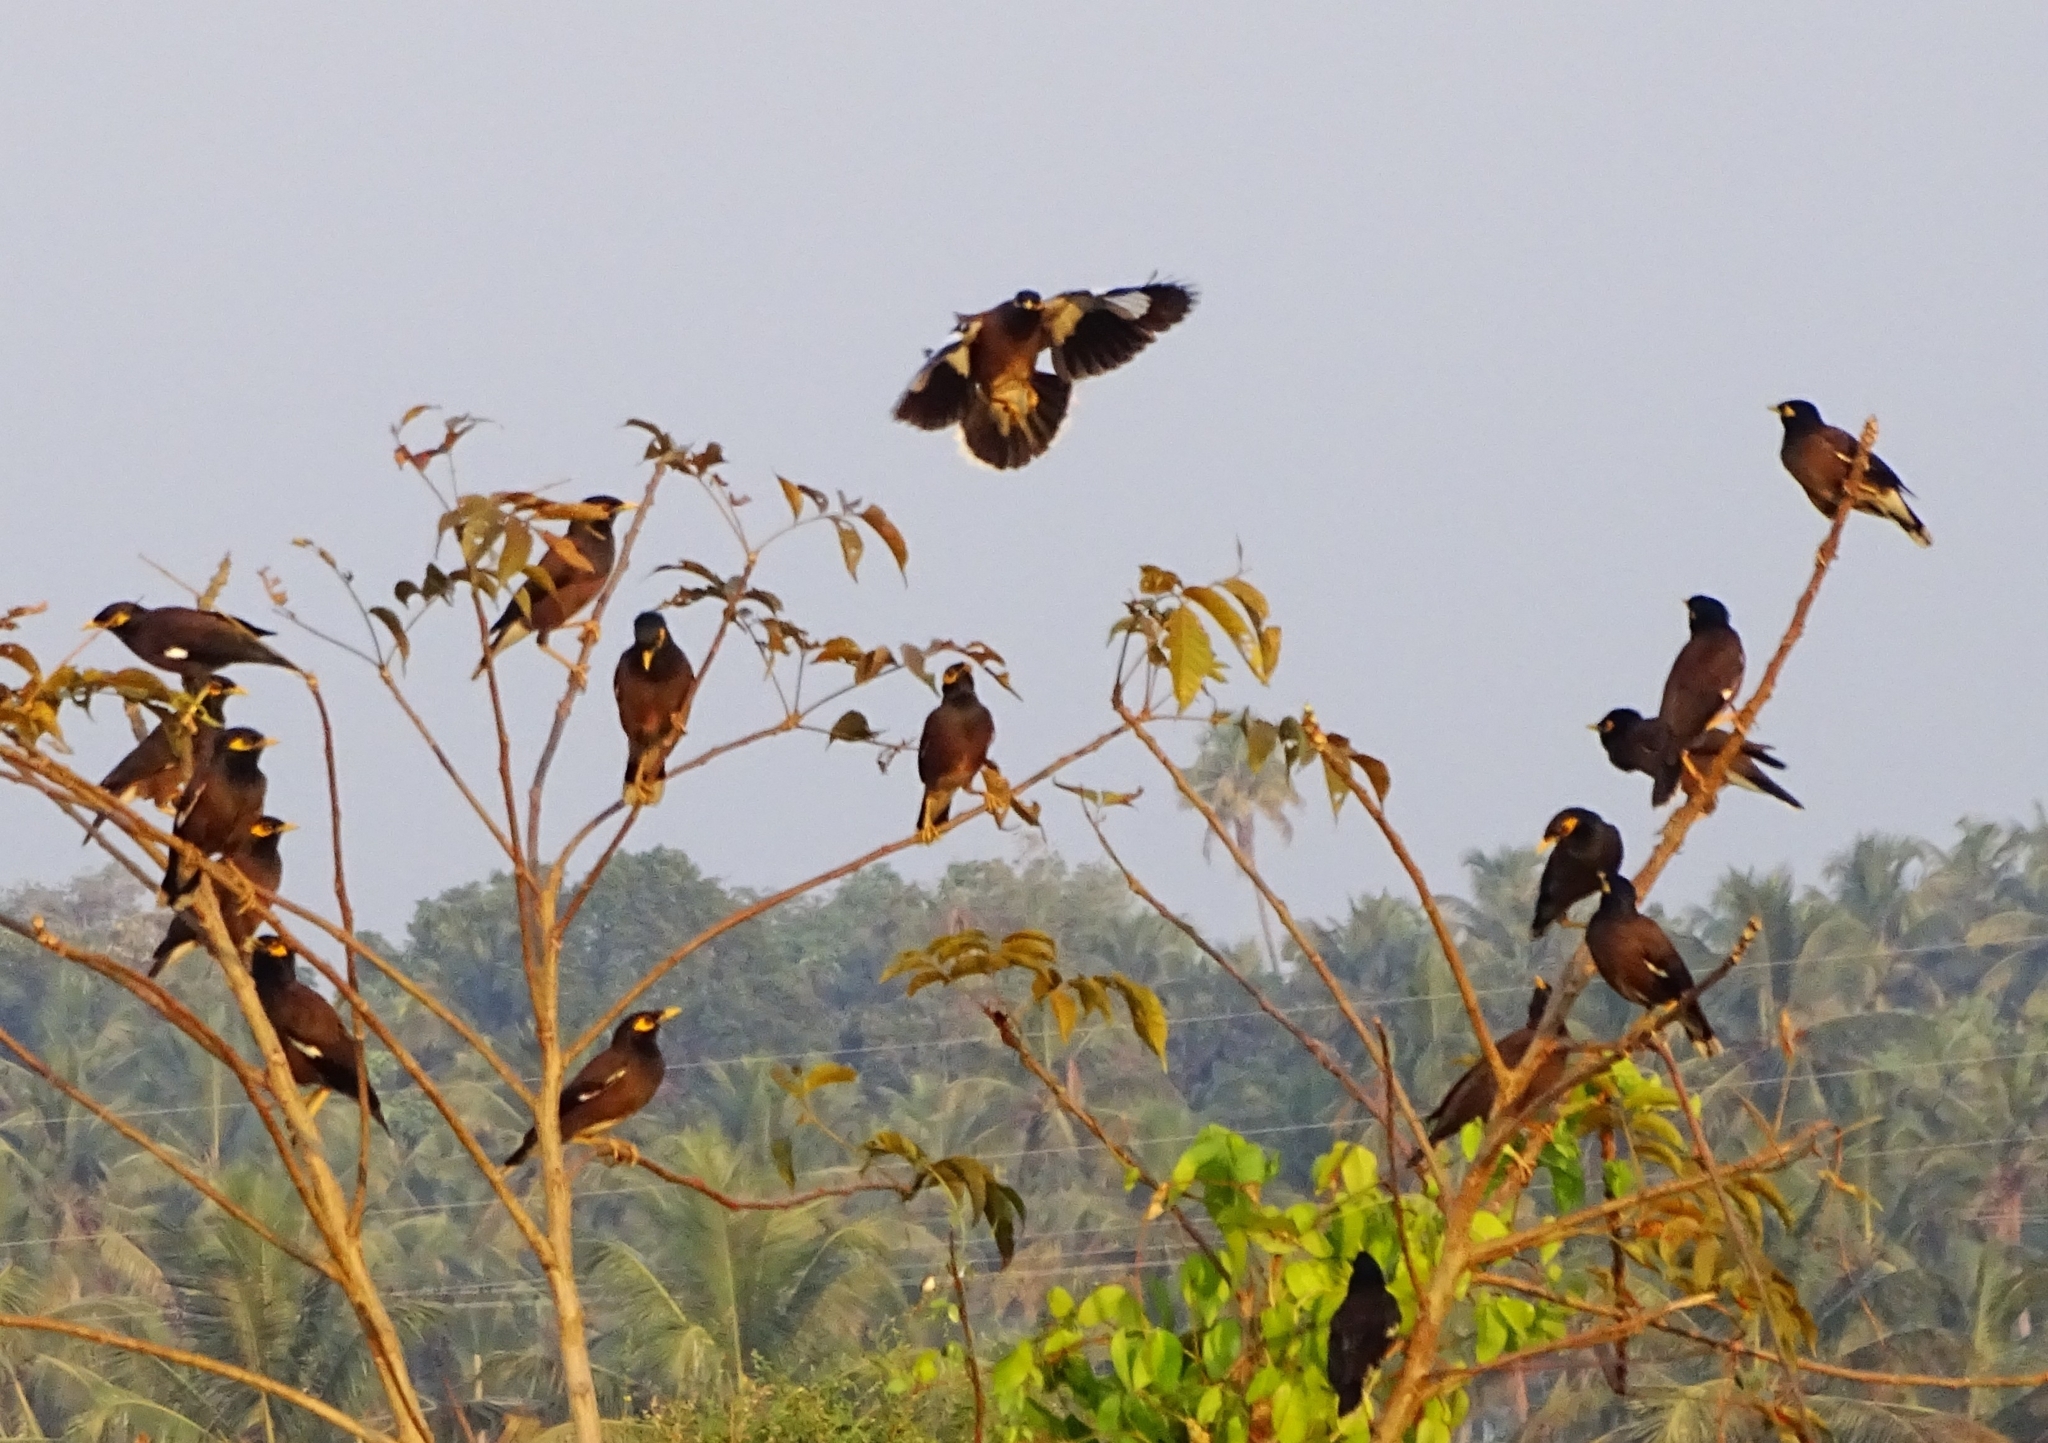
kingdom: Animalia
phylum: Chordata
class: Aves
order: Passeriformes
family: Sturnidae
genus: Acridotheres
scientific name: Acridotheres tristis
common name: Common myna
